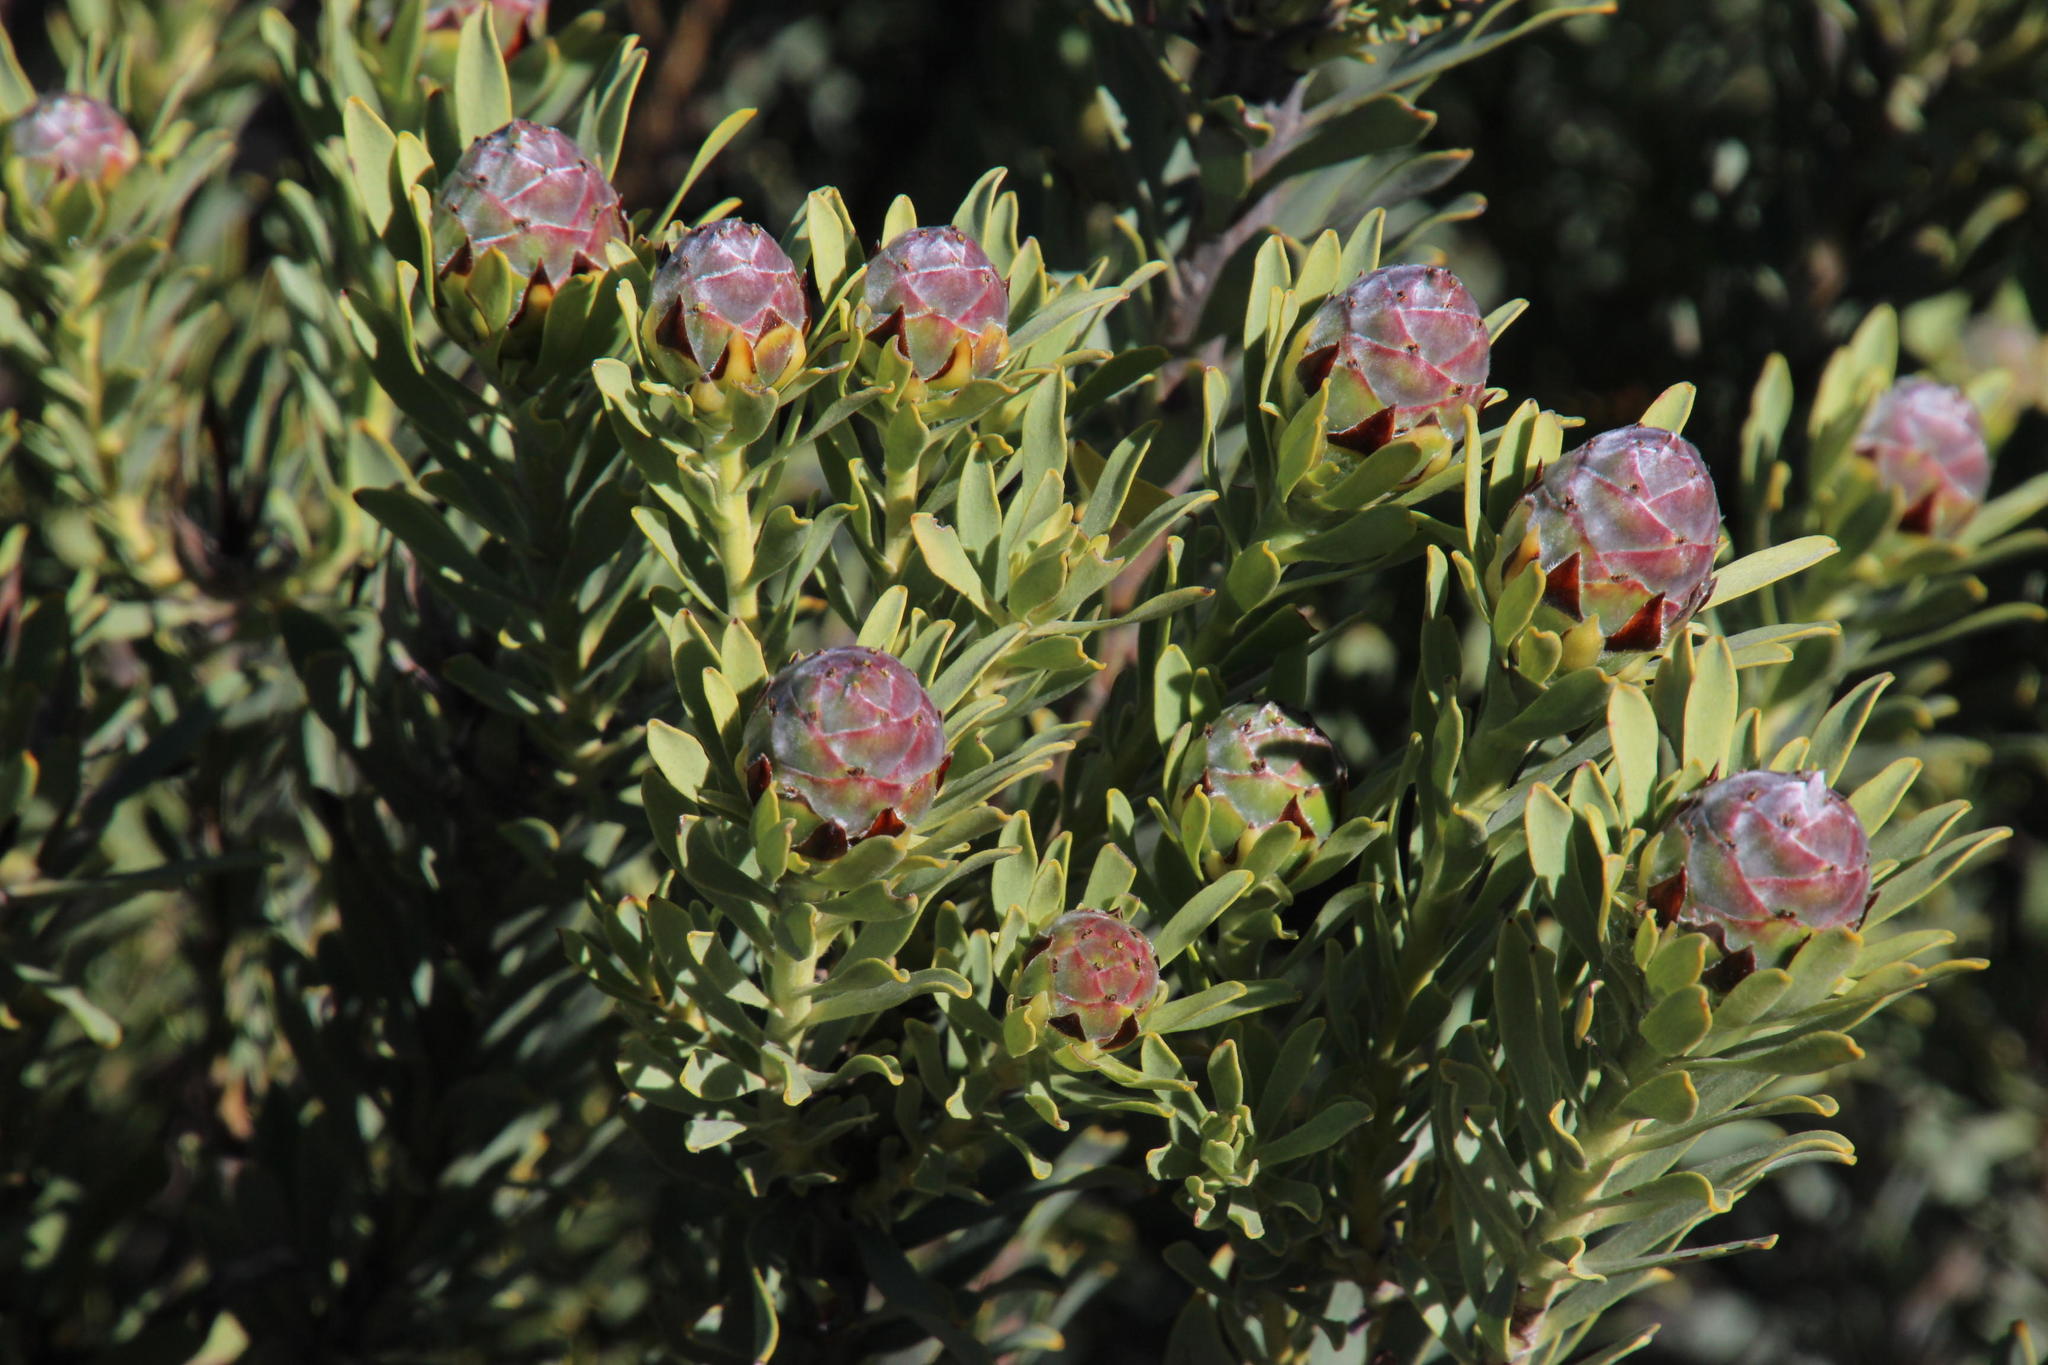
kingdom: Plantae
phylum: Tracheophyta
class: Magnoliopsida
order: Proteales
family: Proteaceae
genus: Leucadendron
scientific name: Leucadendron pubescens
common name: Grey conebush
